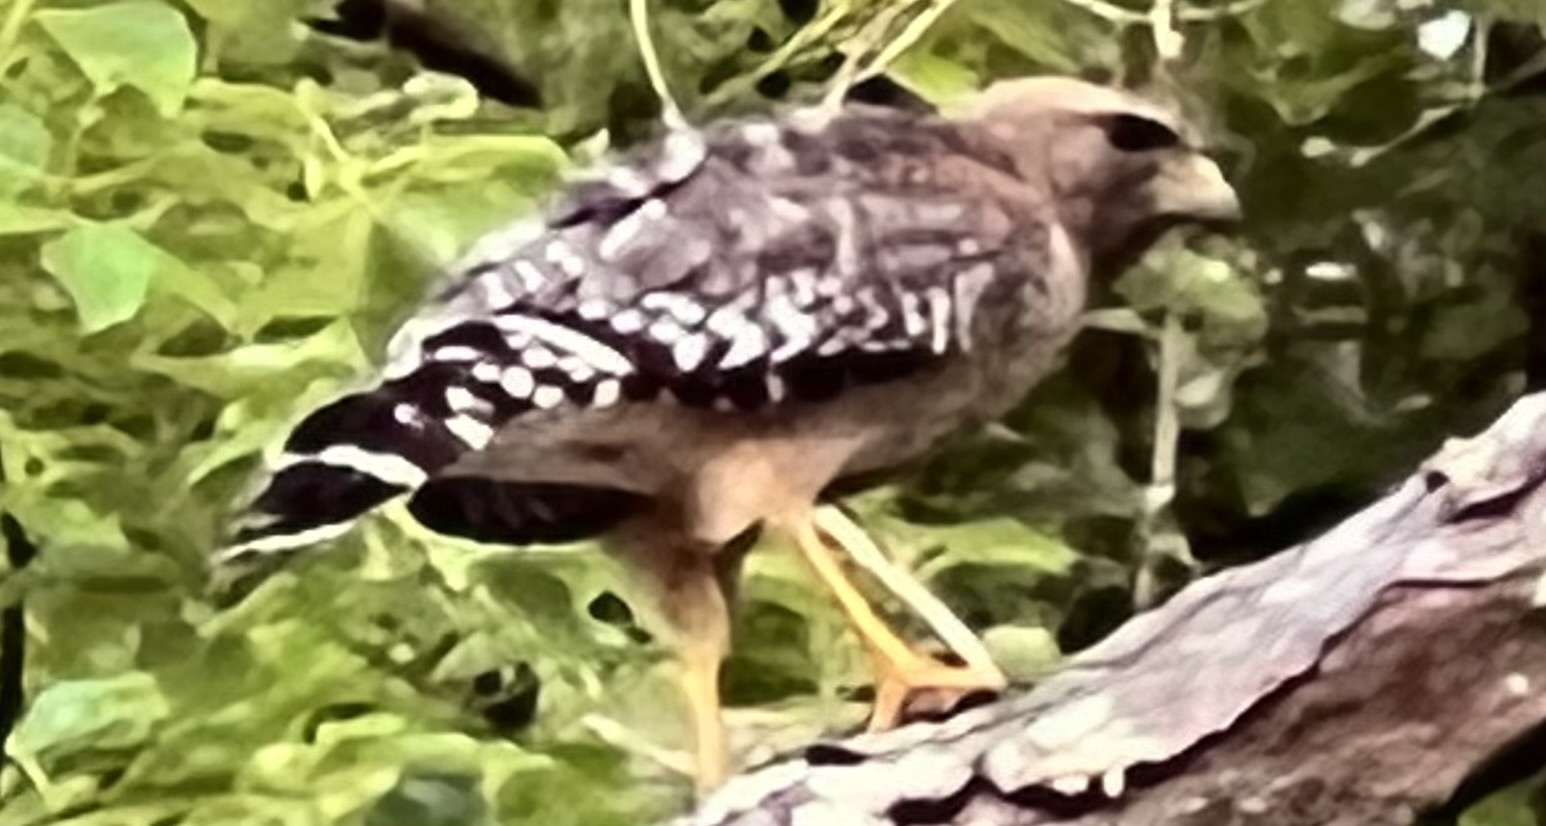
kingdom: Animalia
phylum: Chordata
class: Aves
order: Accipitriformes
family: Accipitridae
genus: Buteo
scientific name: Buteo lineatus
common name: Red-shouldered hawk
